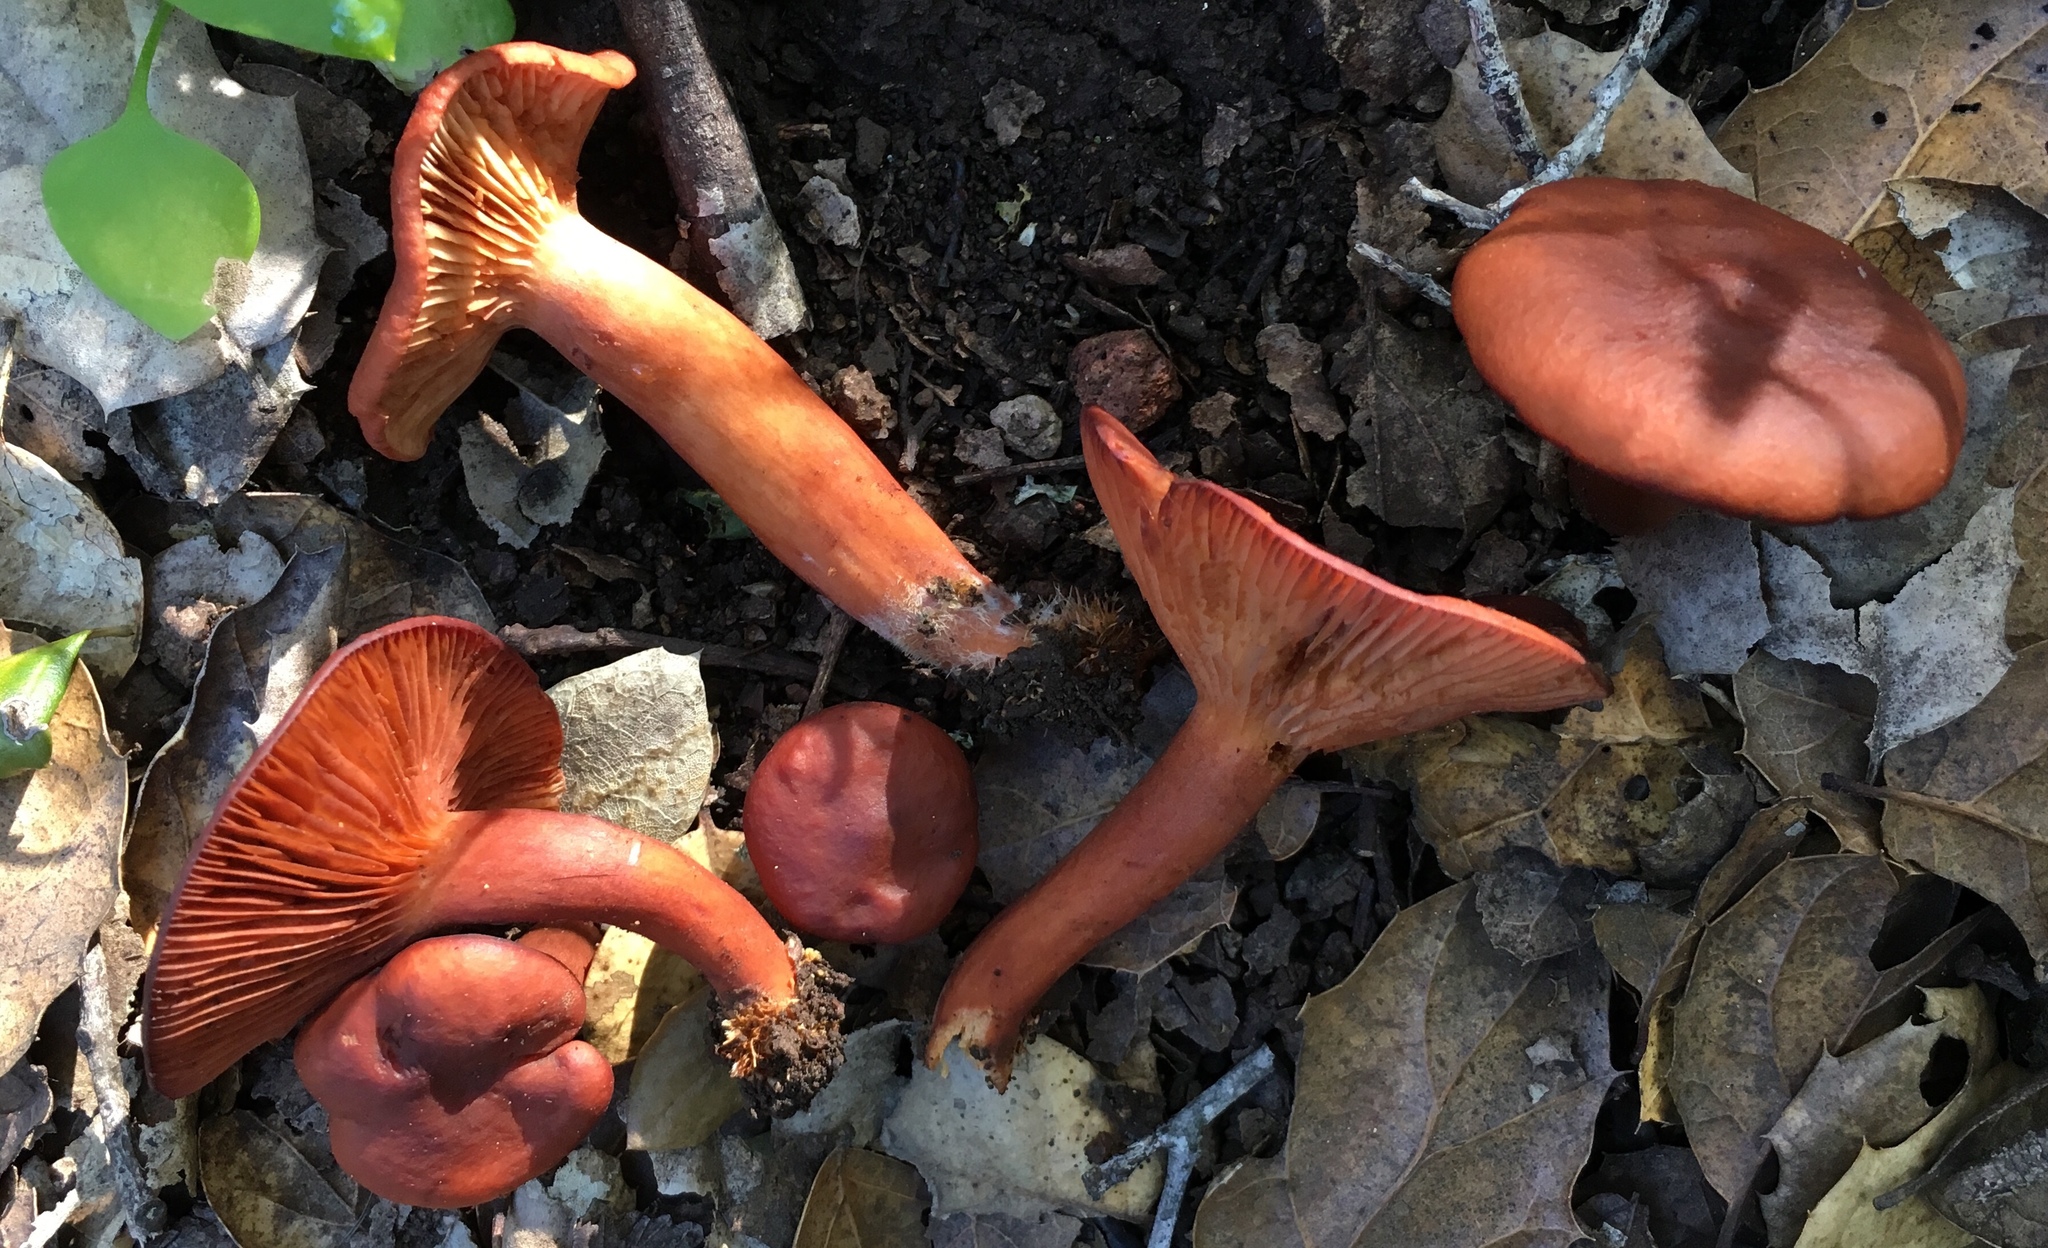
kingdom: Fungi
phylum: Basidiomycota
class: Agaricomycetes
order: Russulales
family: Russulaceae
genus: Lactarius
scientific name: Lactarius rufulus
